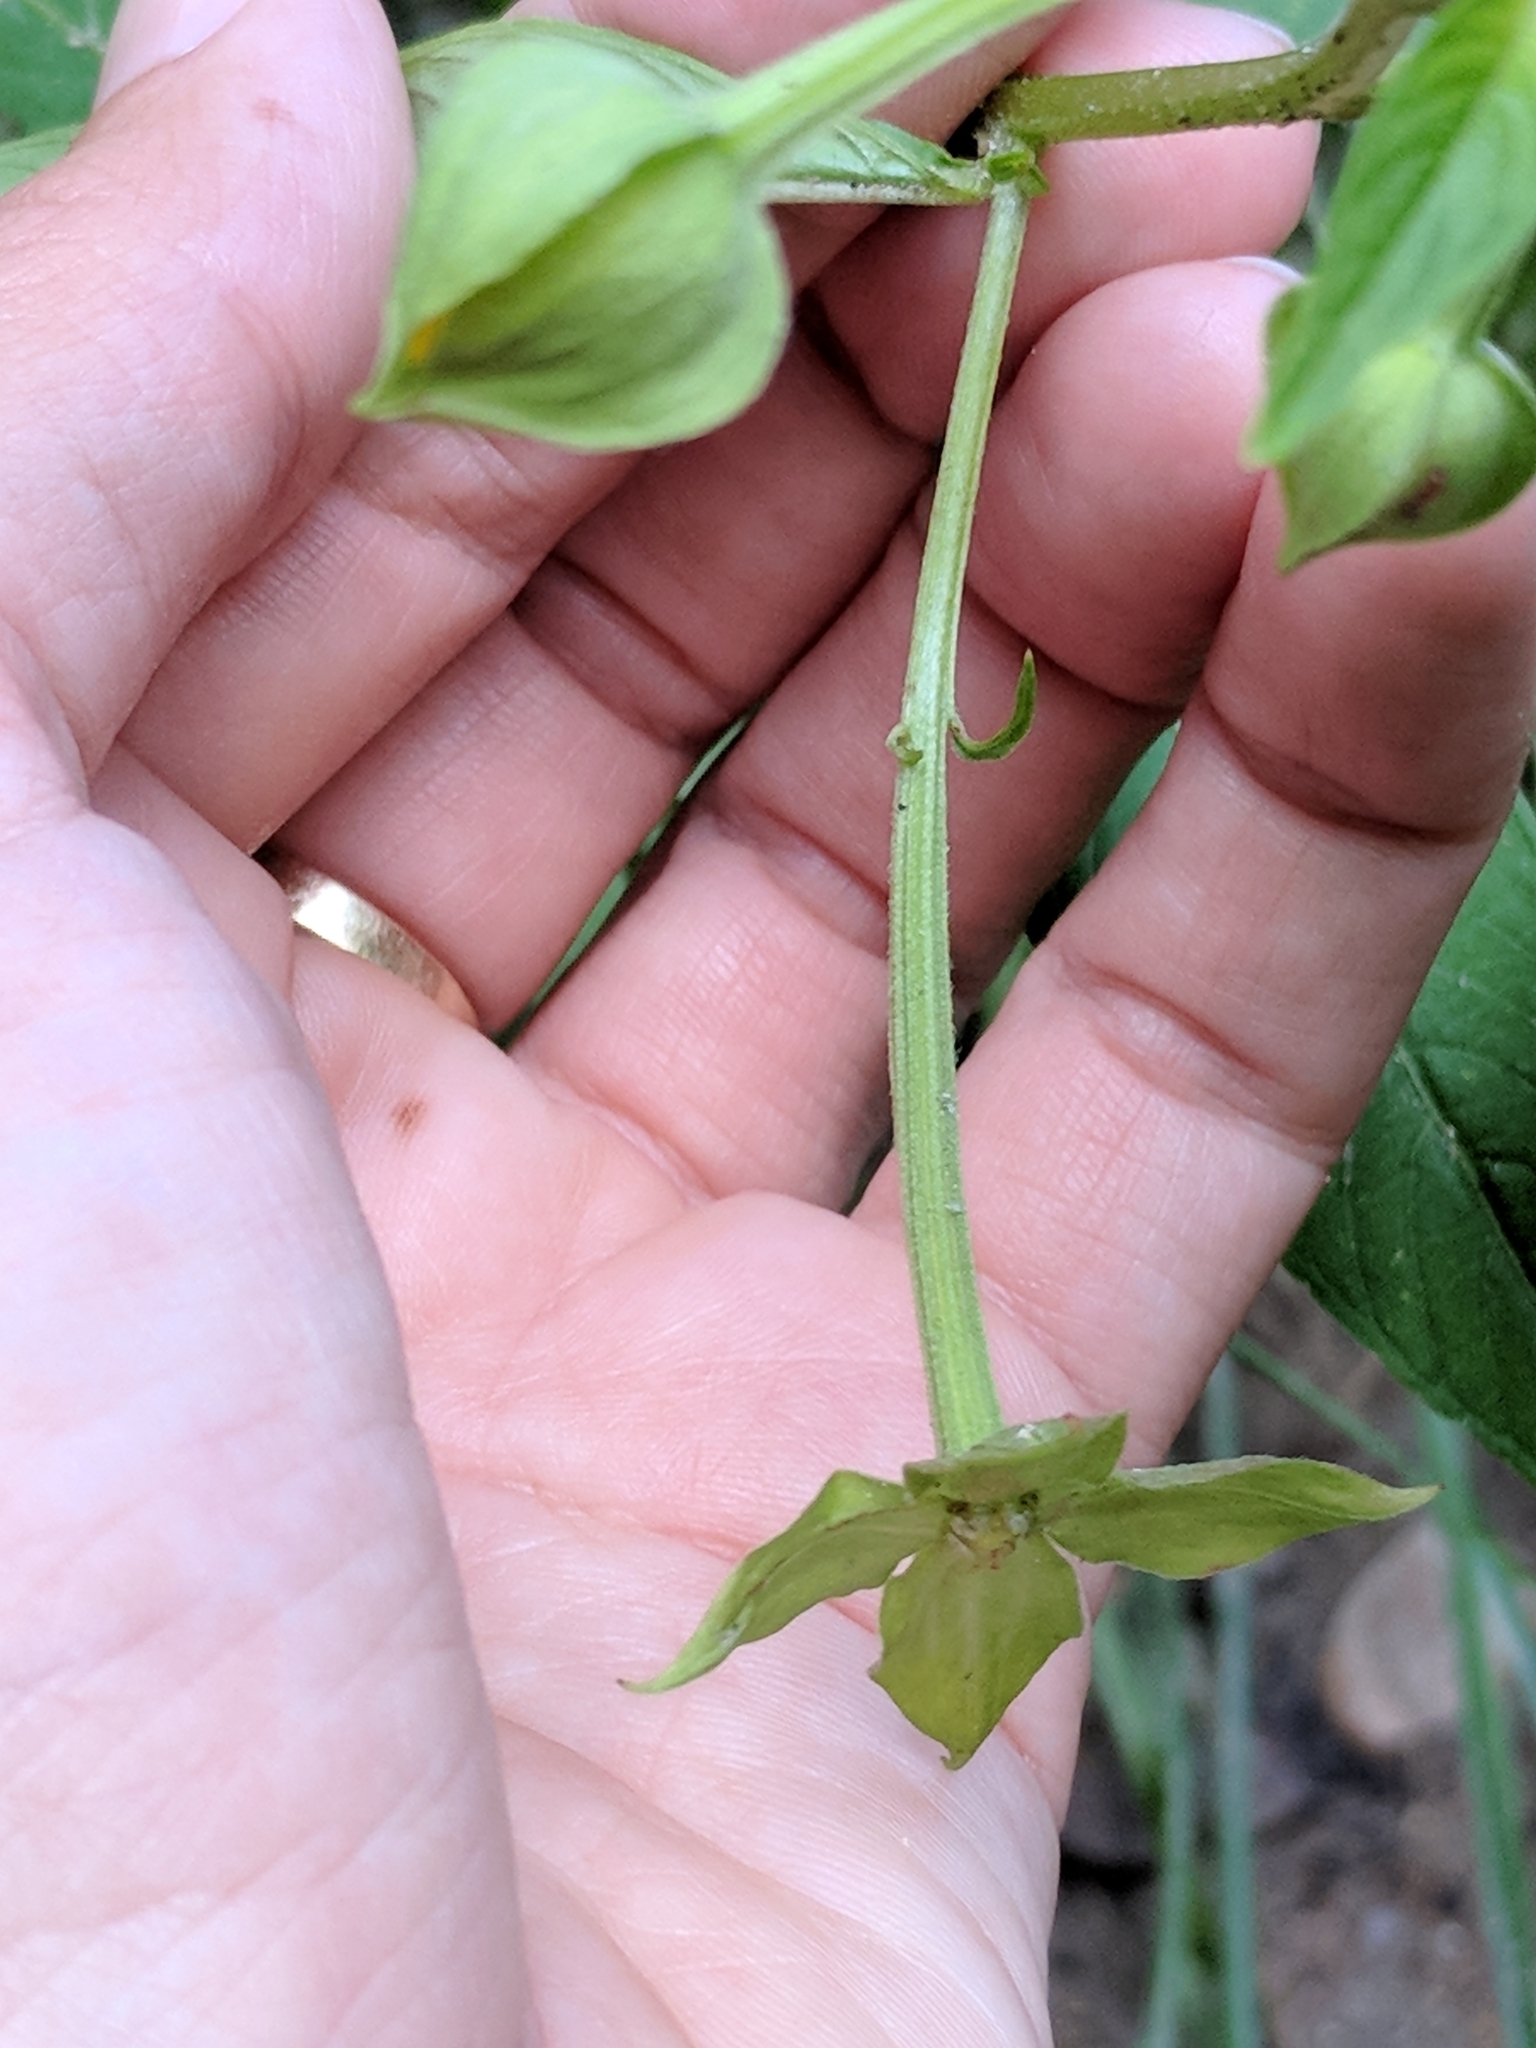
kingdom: Plantae
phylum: Tracheophyta
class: Magnoliopsida
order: Myrtales
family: Onagraceae
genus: Ludwigia
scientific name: Ludwigia octovalvis
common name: Water-primrose
